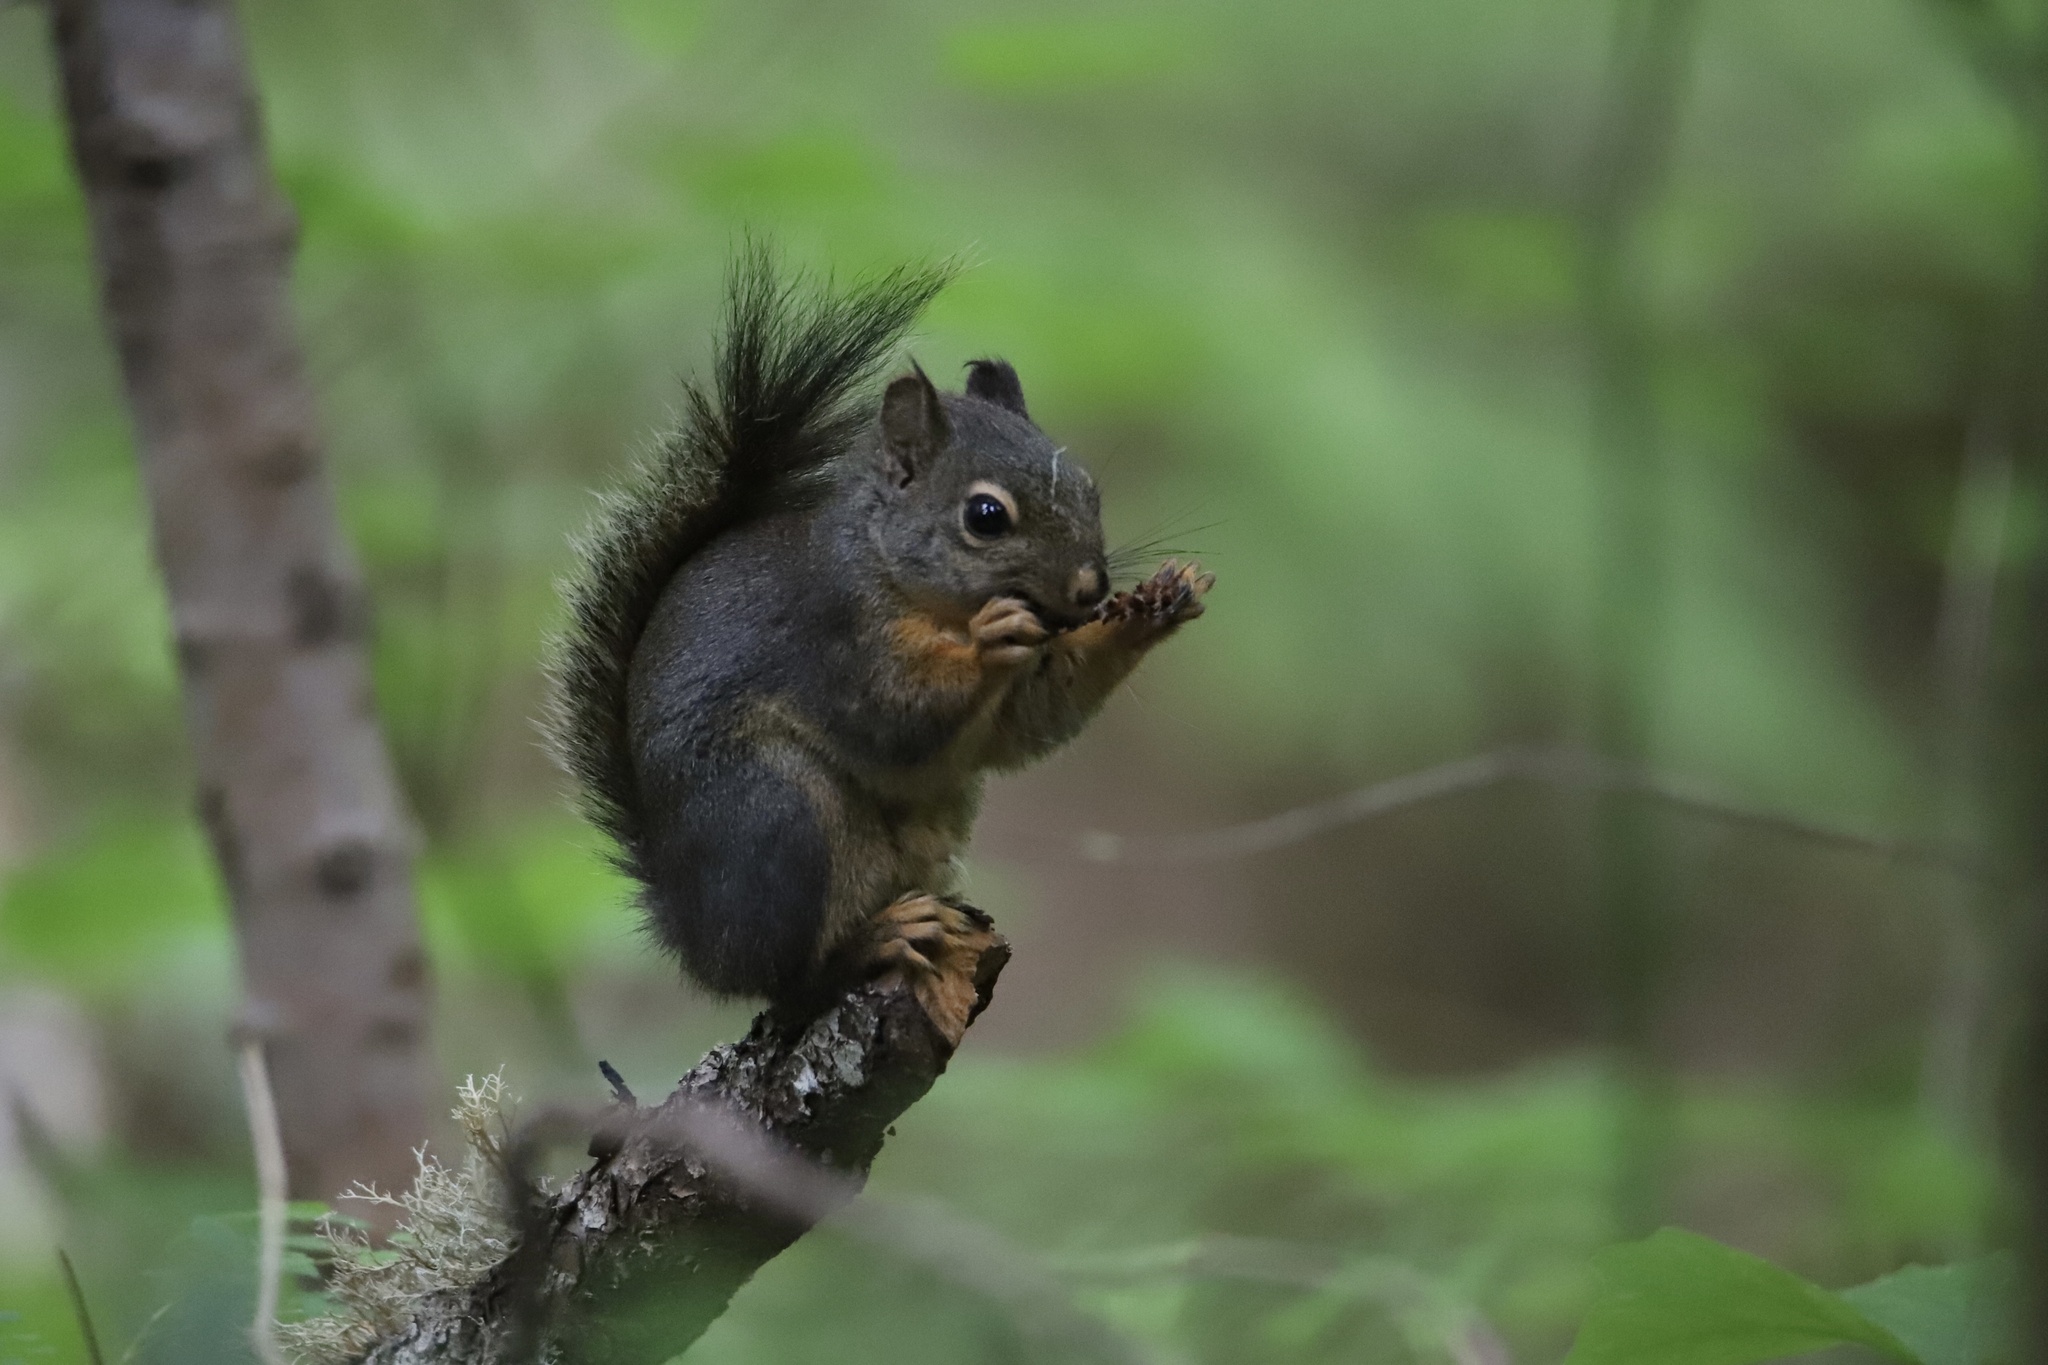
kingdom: Animalia
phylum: Chordata
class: Mammalia
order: Rodentia
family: Sciuridae
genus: Tamiasciurus
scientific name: Tamiasciurus douglasii
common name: Douglas's squirrel
